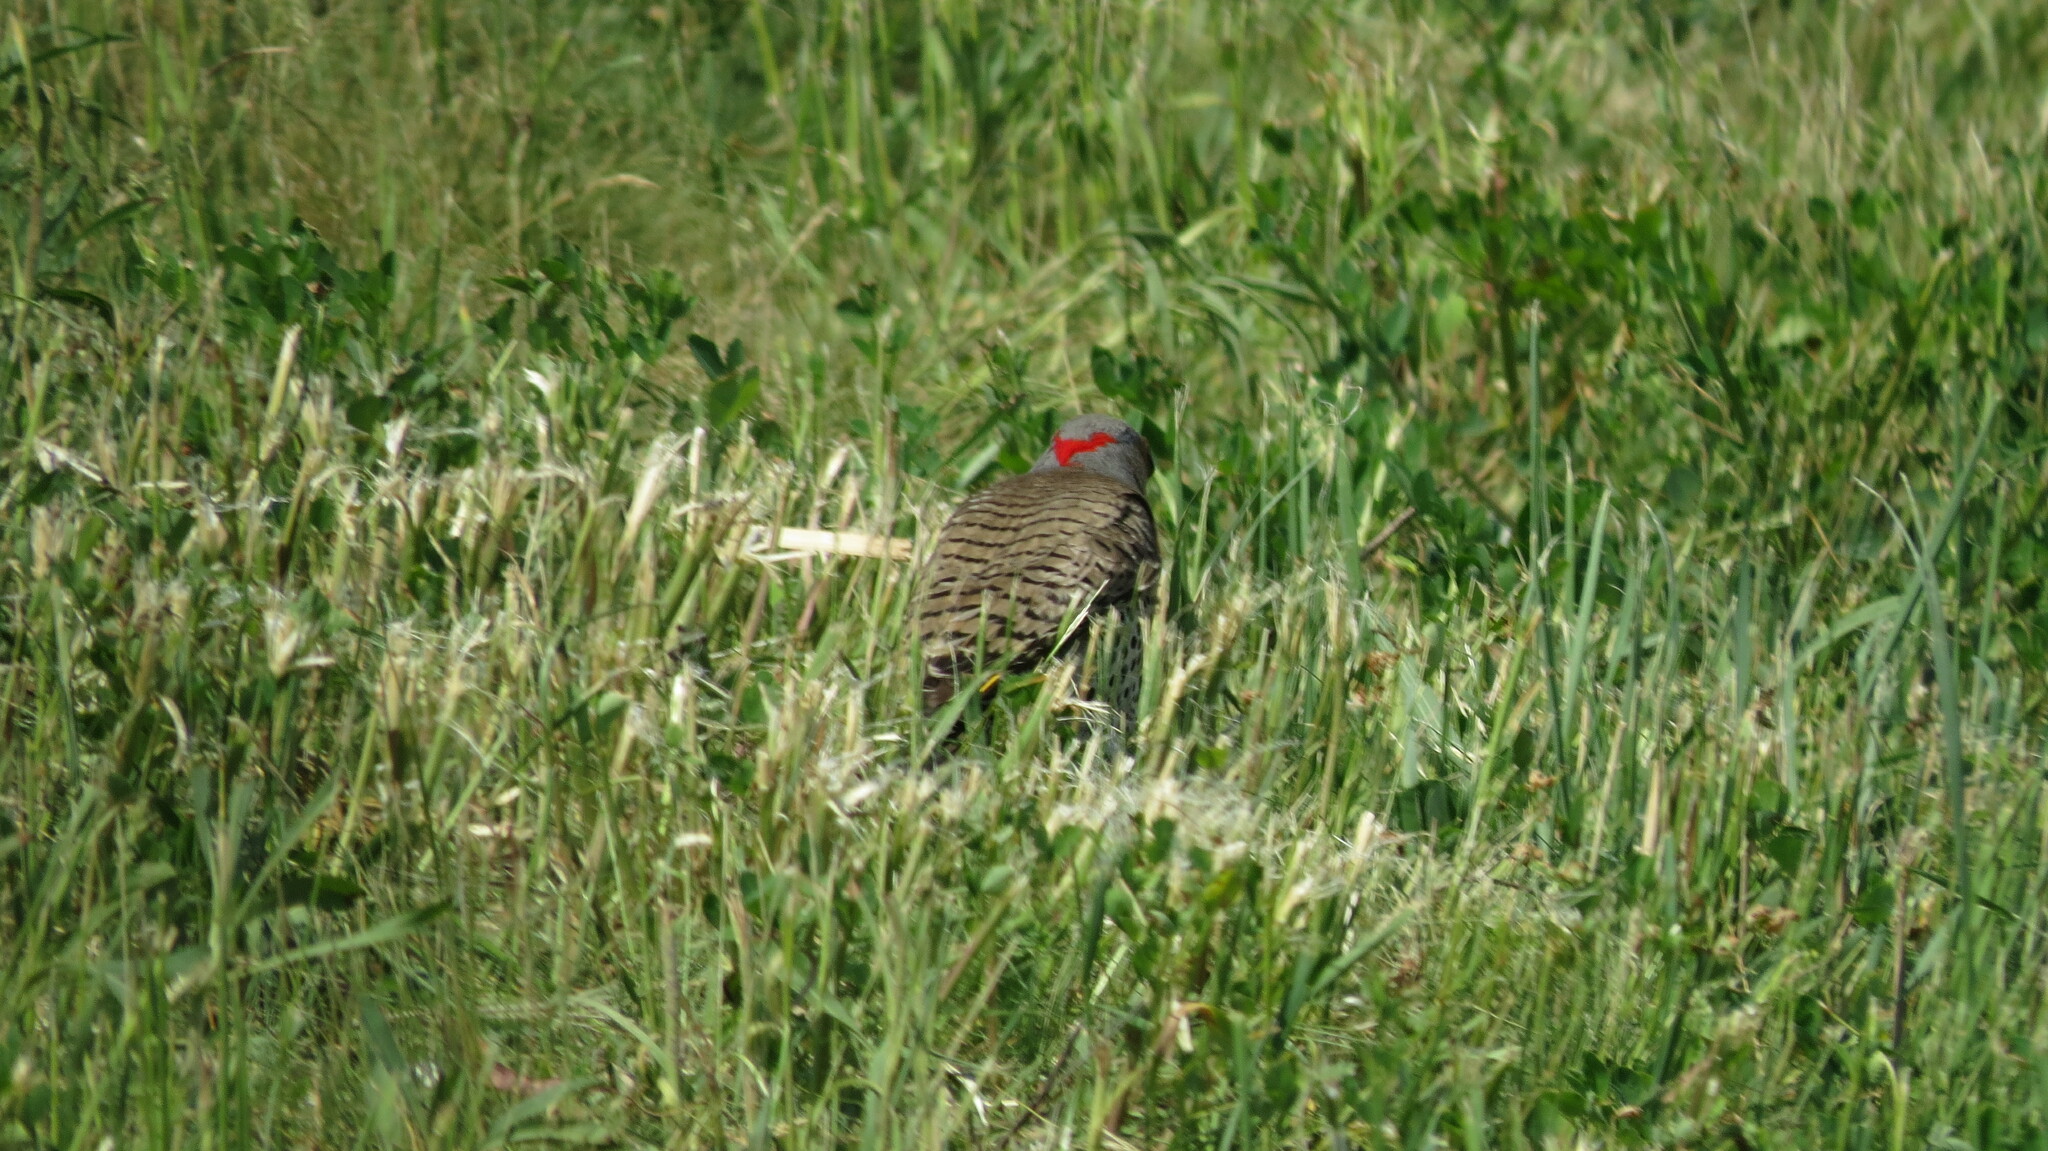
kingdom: Animalia
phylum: Chordata
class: Aves
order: Piciformes
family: Picidae
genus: Colaptes
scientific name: Colaptes auratus
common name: Northern flicker
